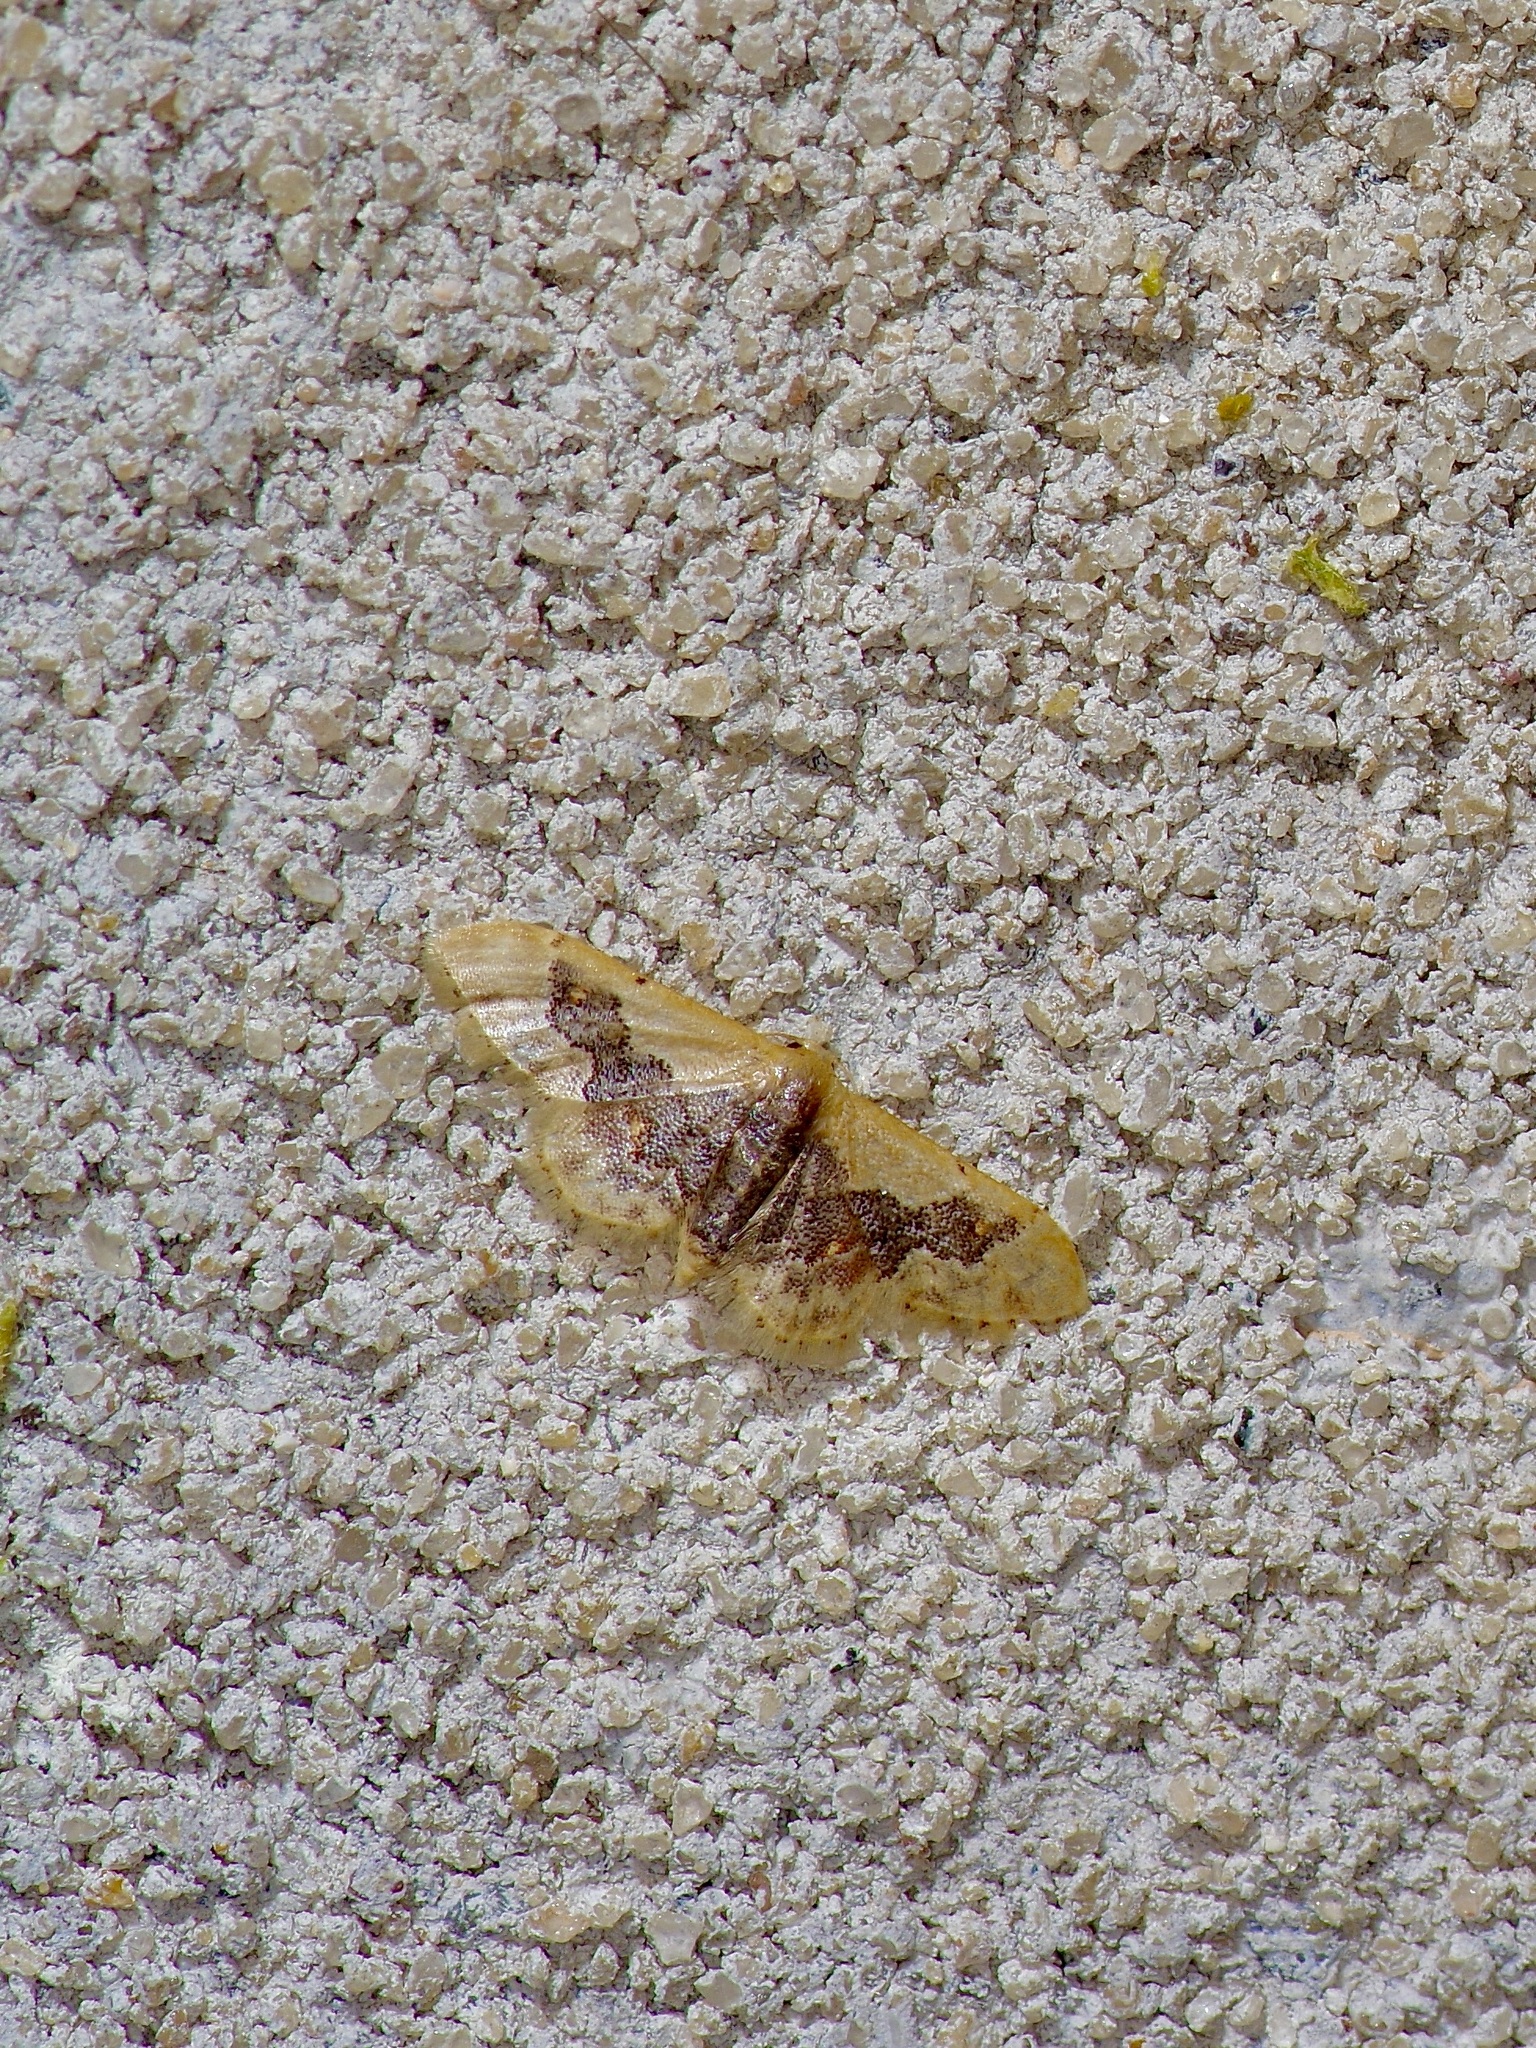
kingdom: Animalia
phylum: Arthropoda
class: Insecta
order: Lepidoptera
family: Geometridae
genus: Idaea
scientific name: Idaea gemmata
